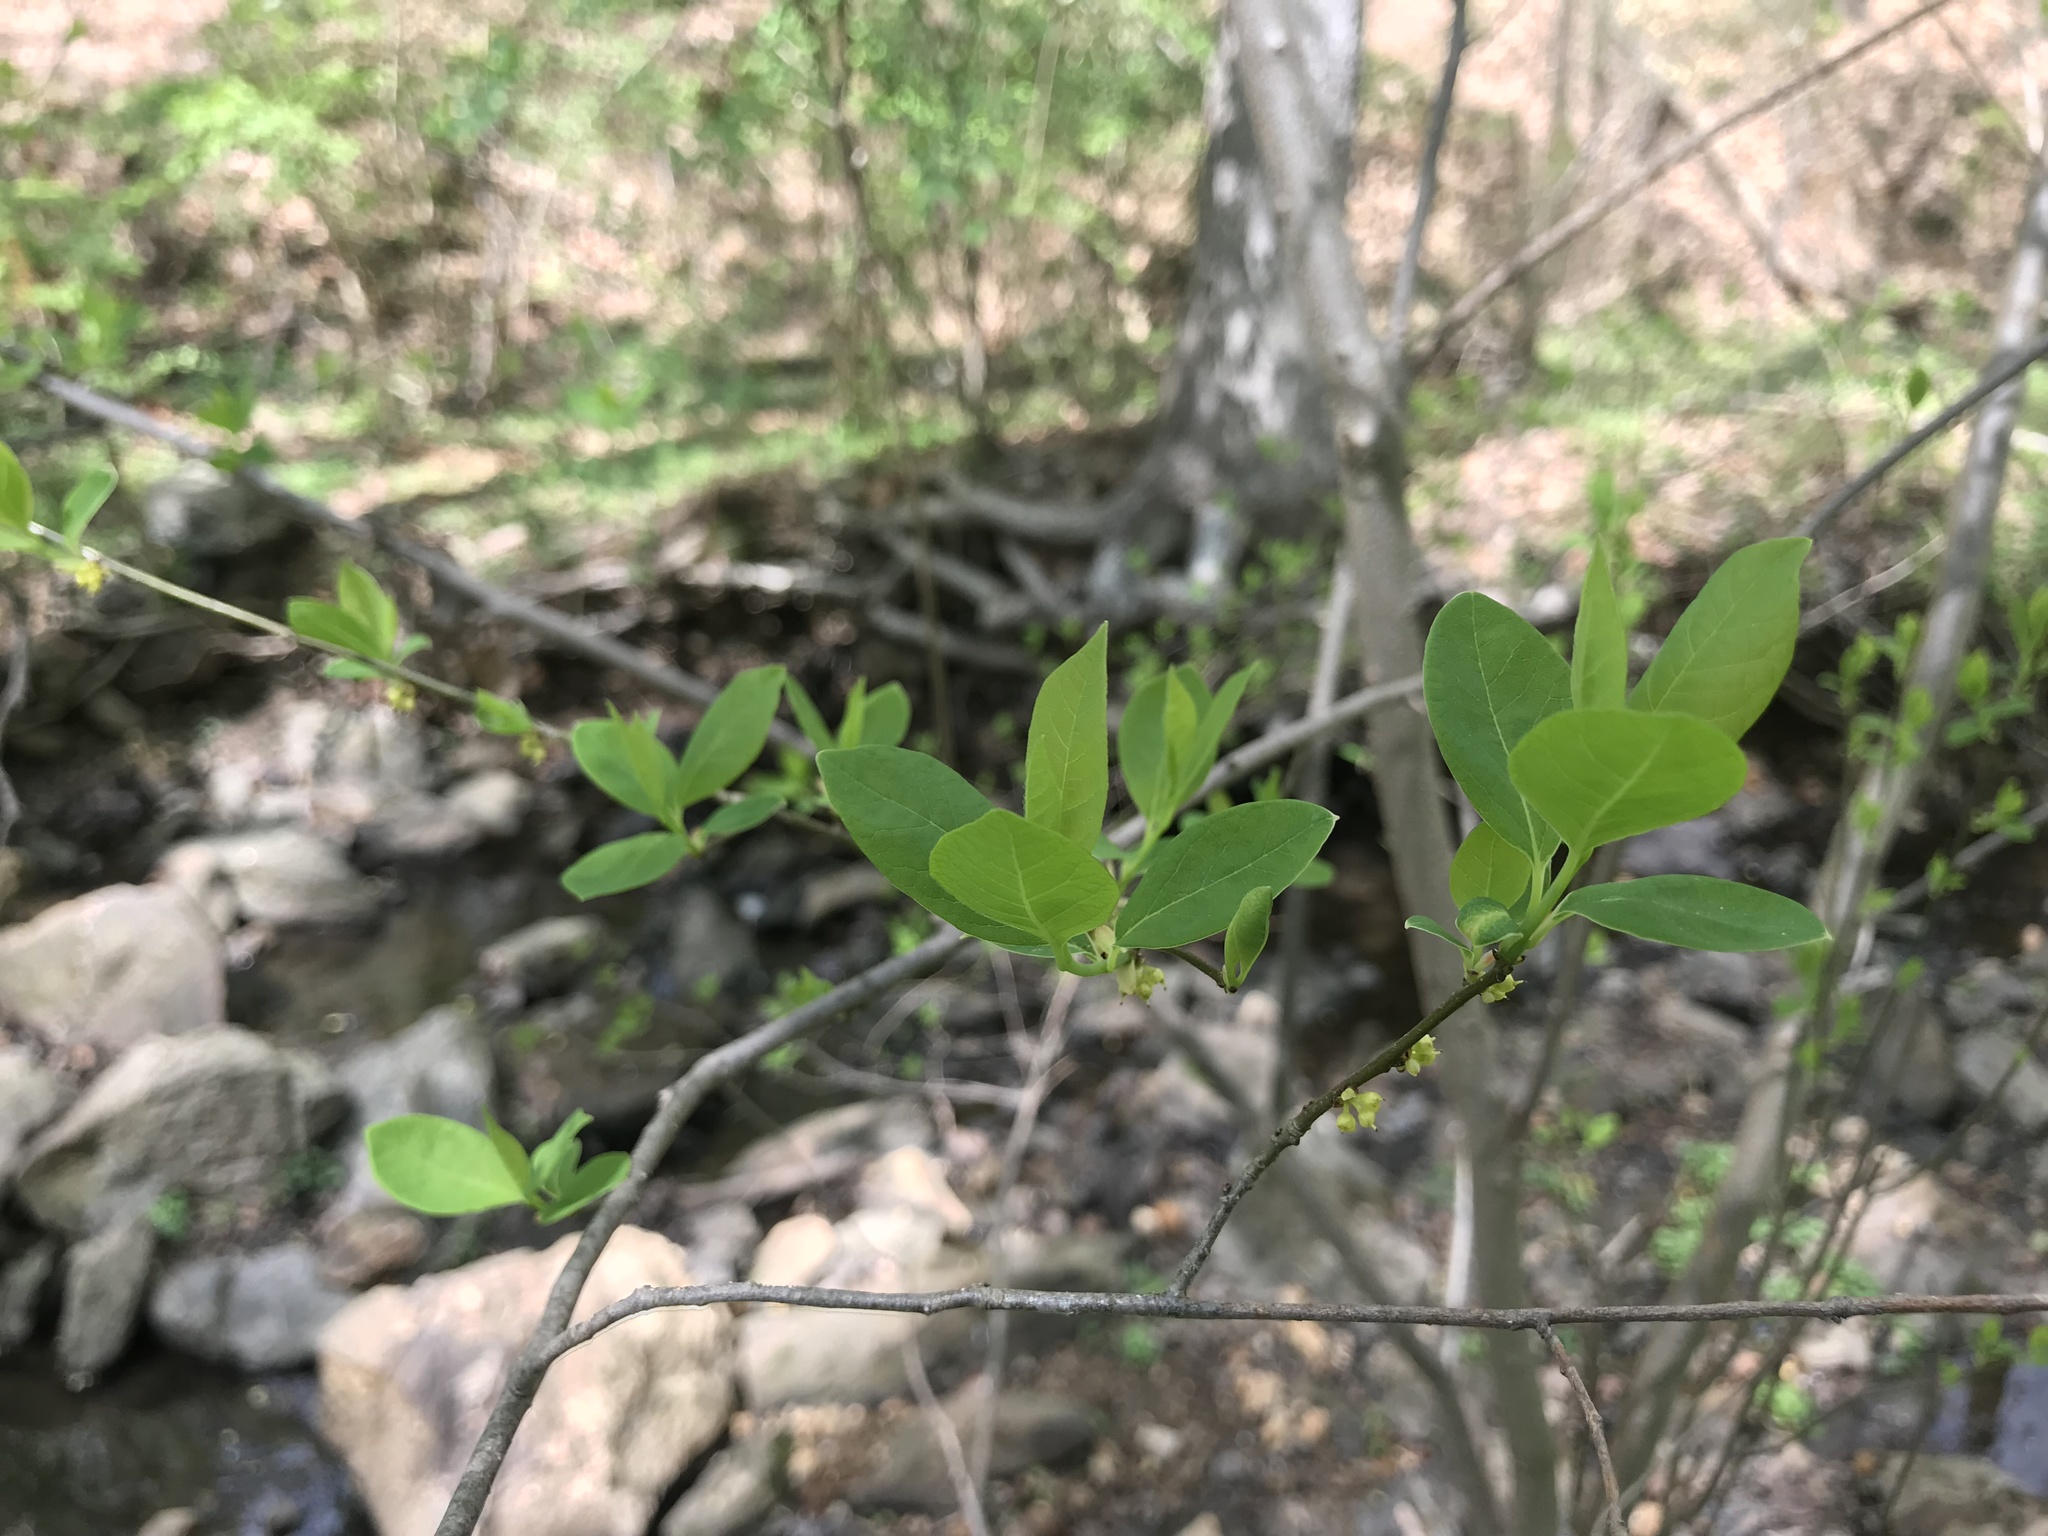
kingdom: Plantae
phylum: Tracheophyta
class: Magnoliopsida
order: Laurales
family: Lauraceae
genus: Lindera
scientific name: Lindera benzoin
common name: Spicebush
